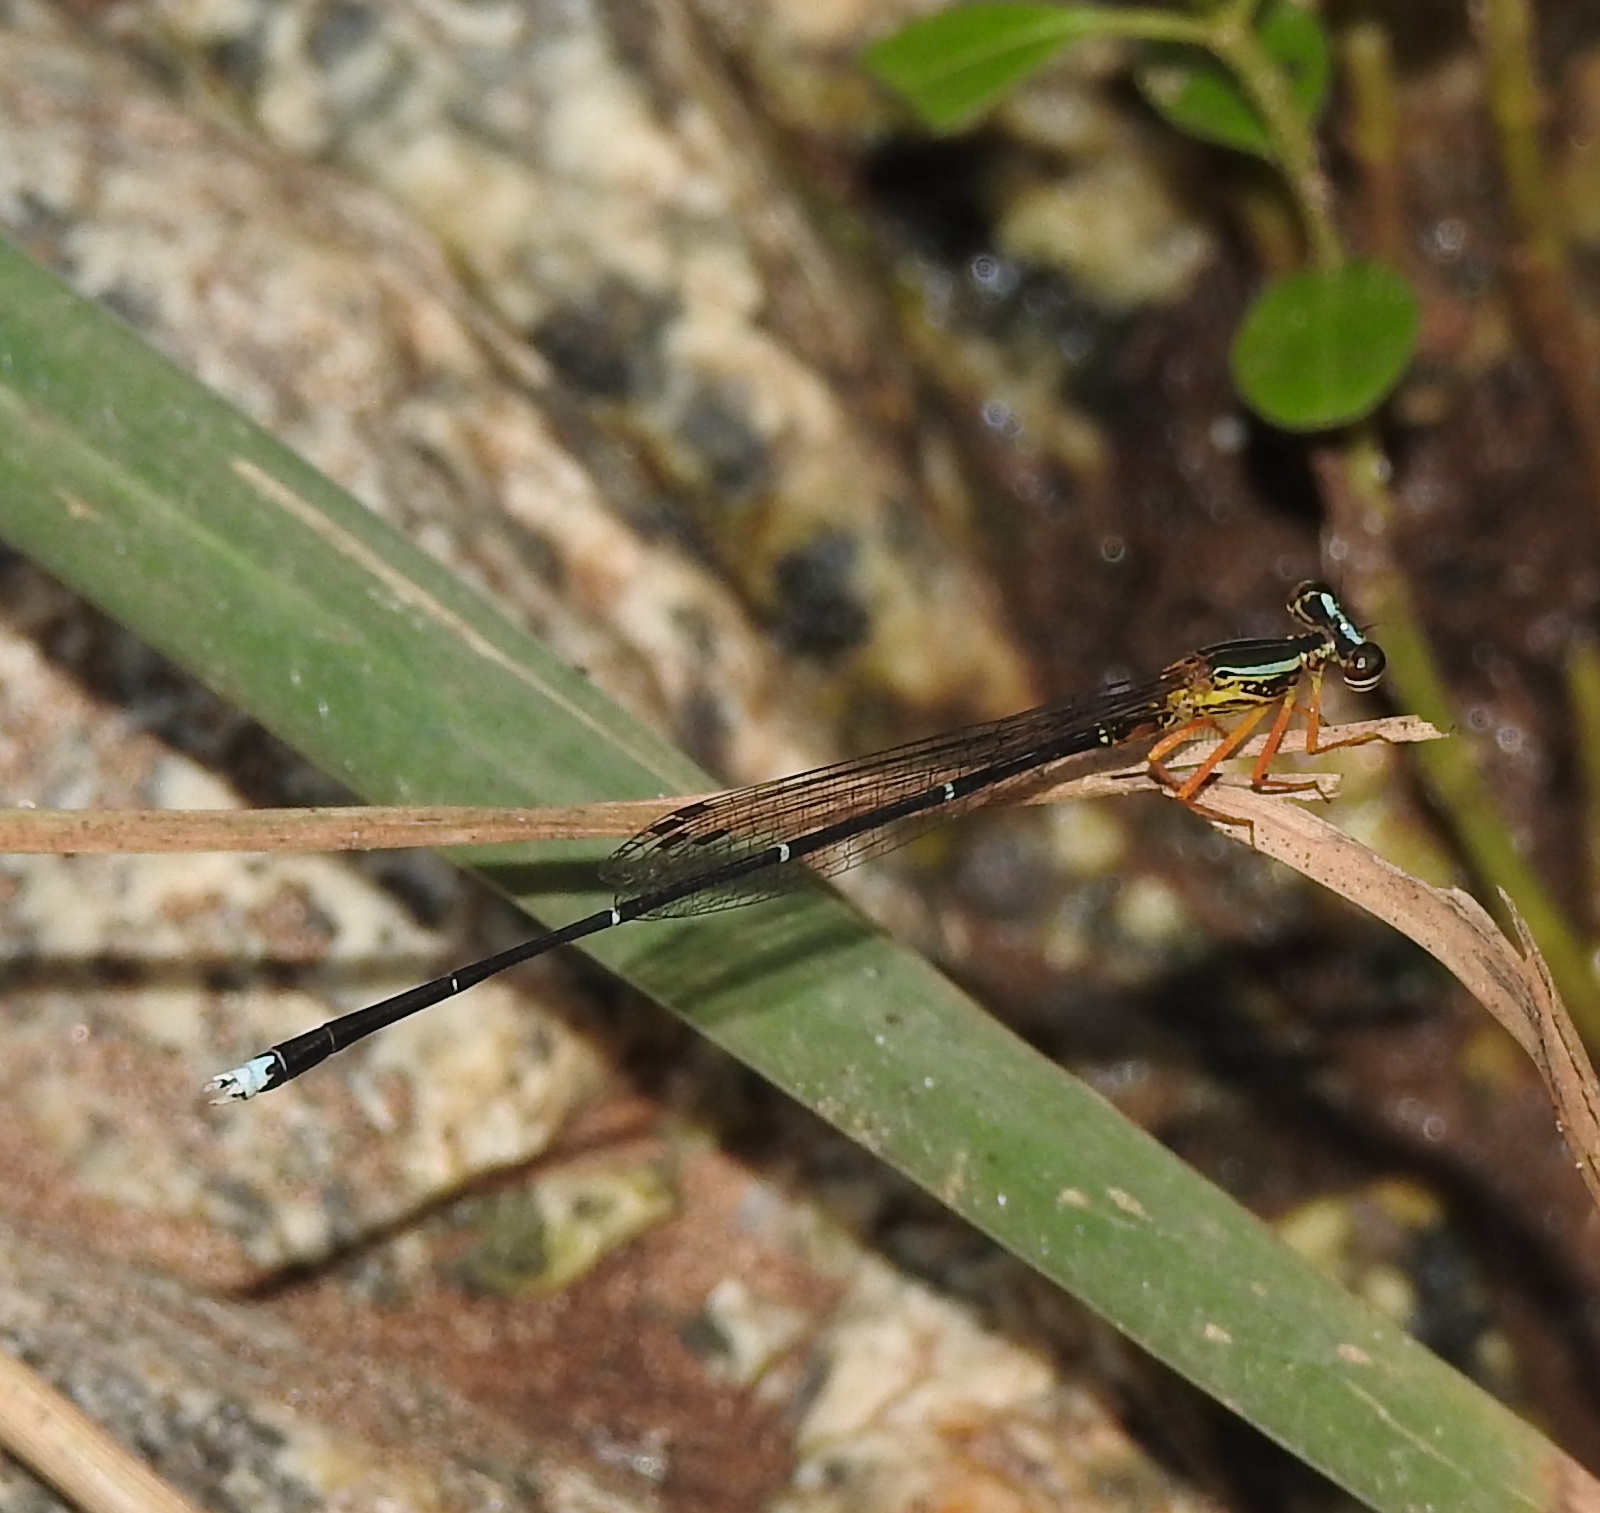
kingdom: Animalia
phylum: Arthropoda
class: Insecta
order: Odonata
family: Platycnemididae
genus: Copera
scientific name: Copera vittata
